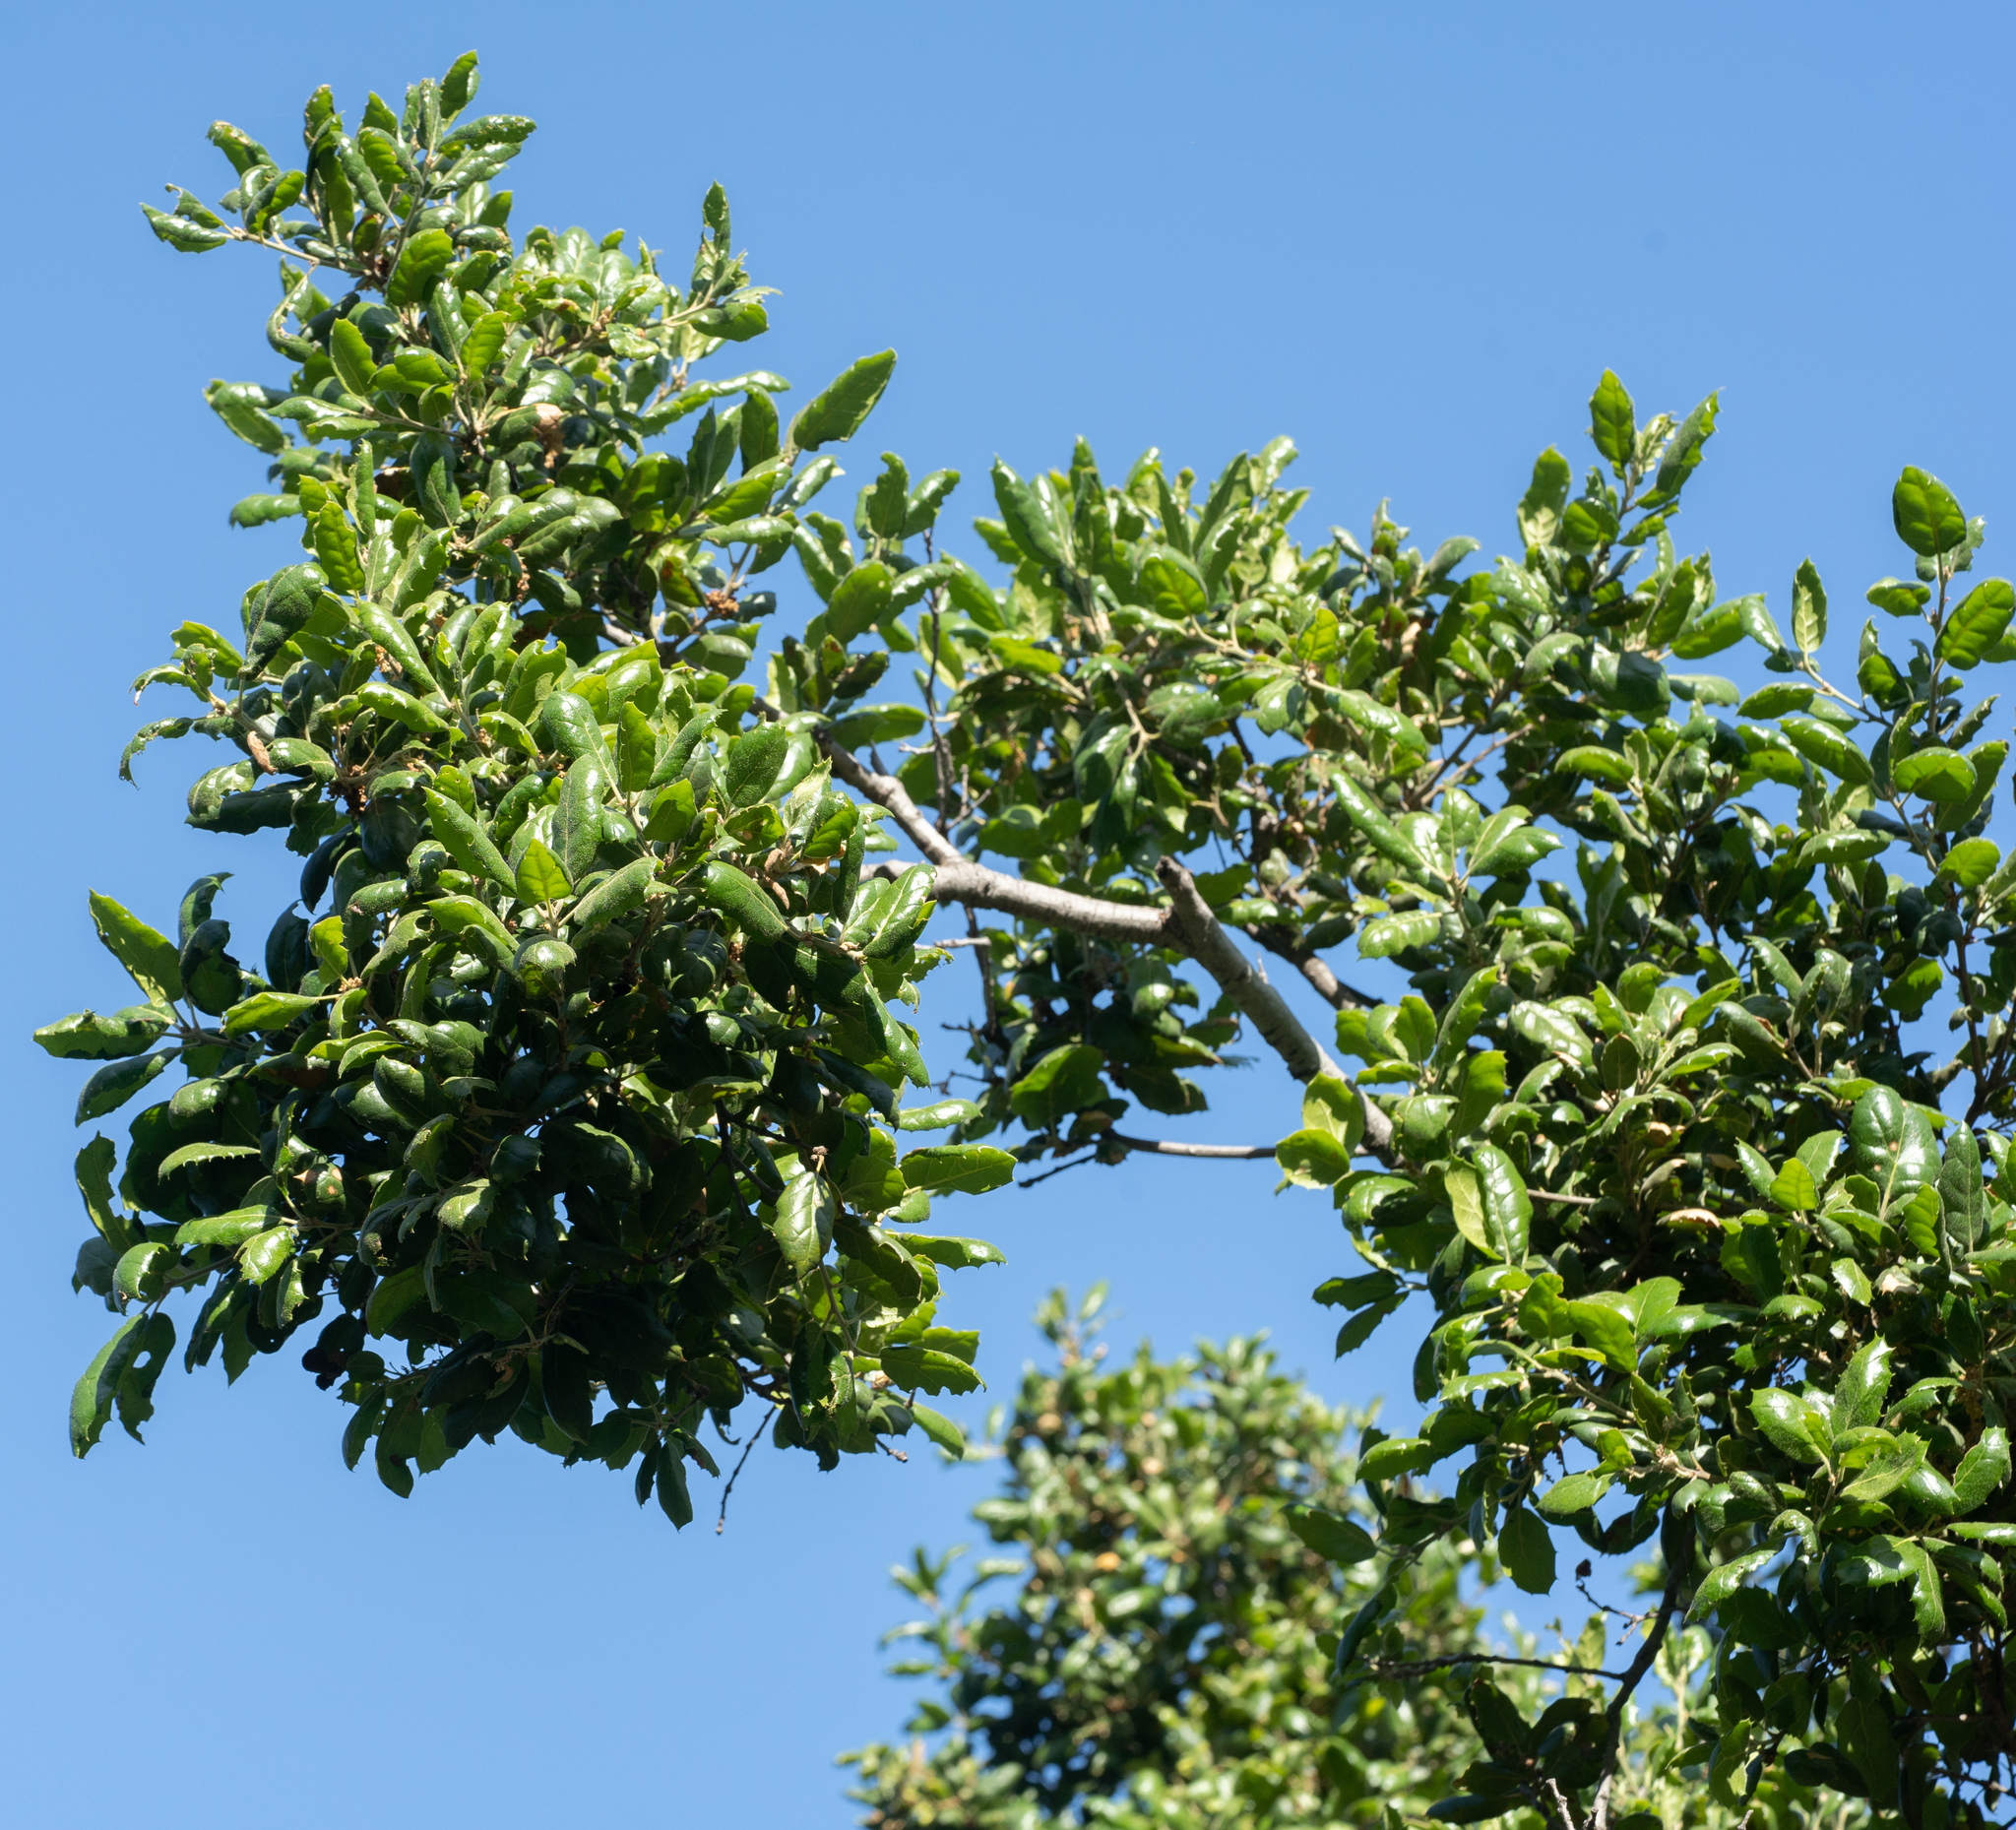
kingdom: Plantae
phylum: Tracheophyta
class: Magnoliopsida
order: Fagales
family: Fagaceae
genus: Quercus
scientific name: Quercus agrifolia
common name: California live oak
